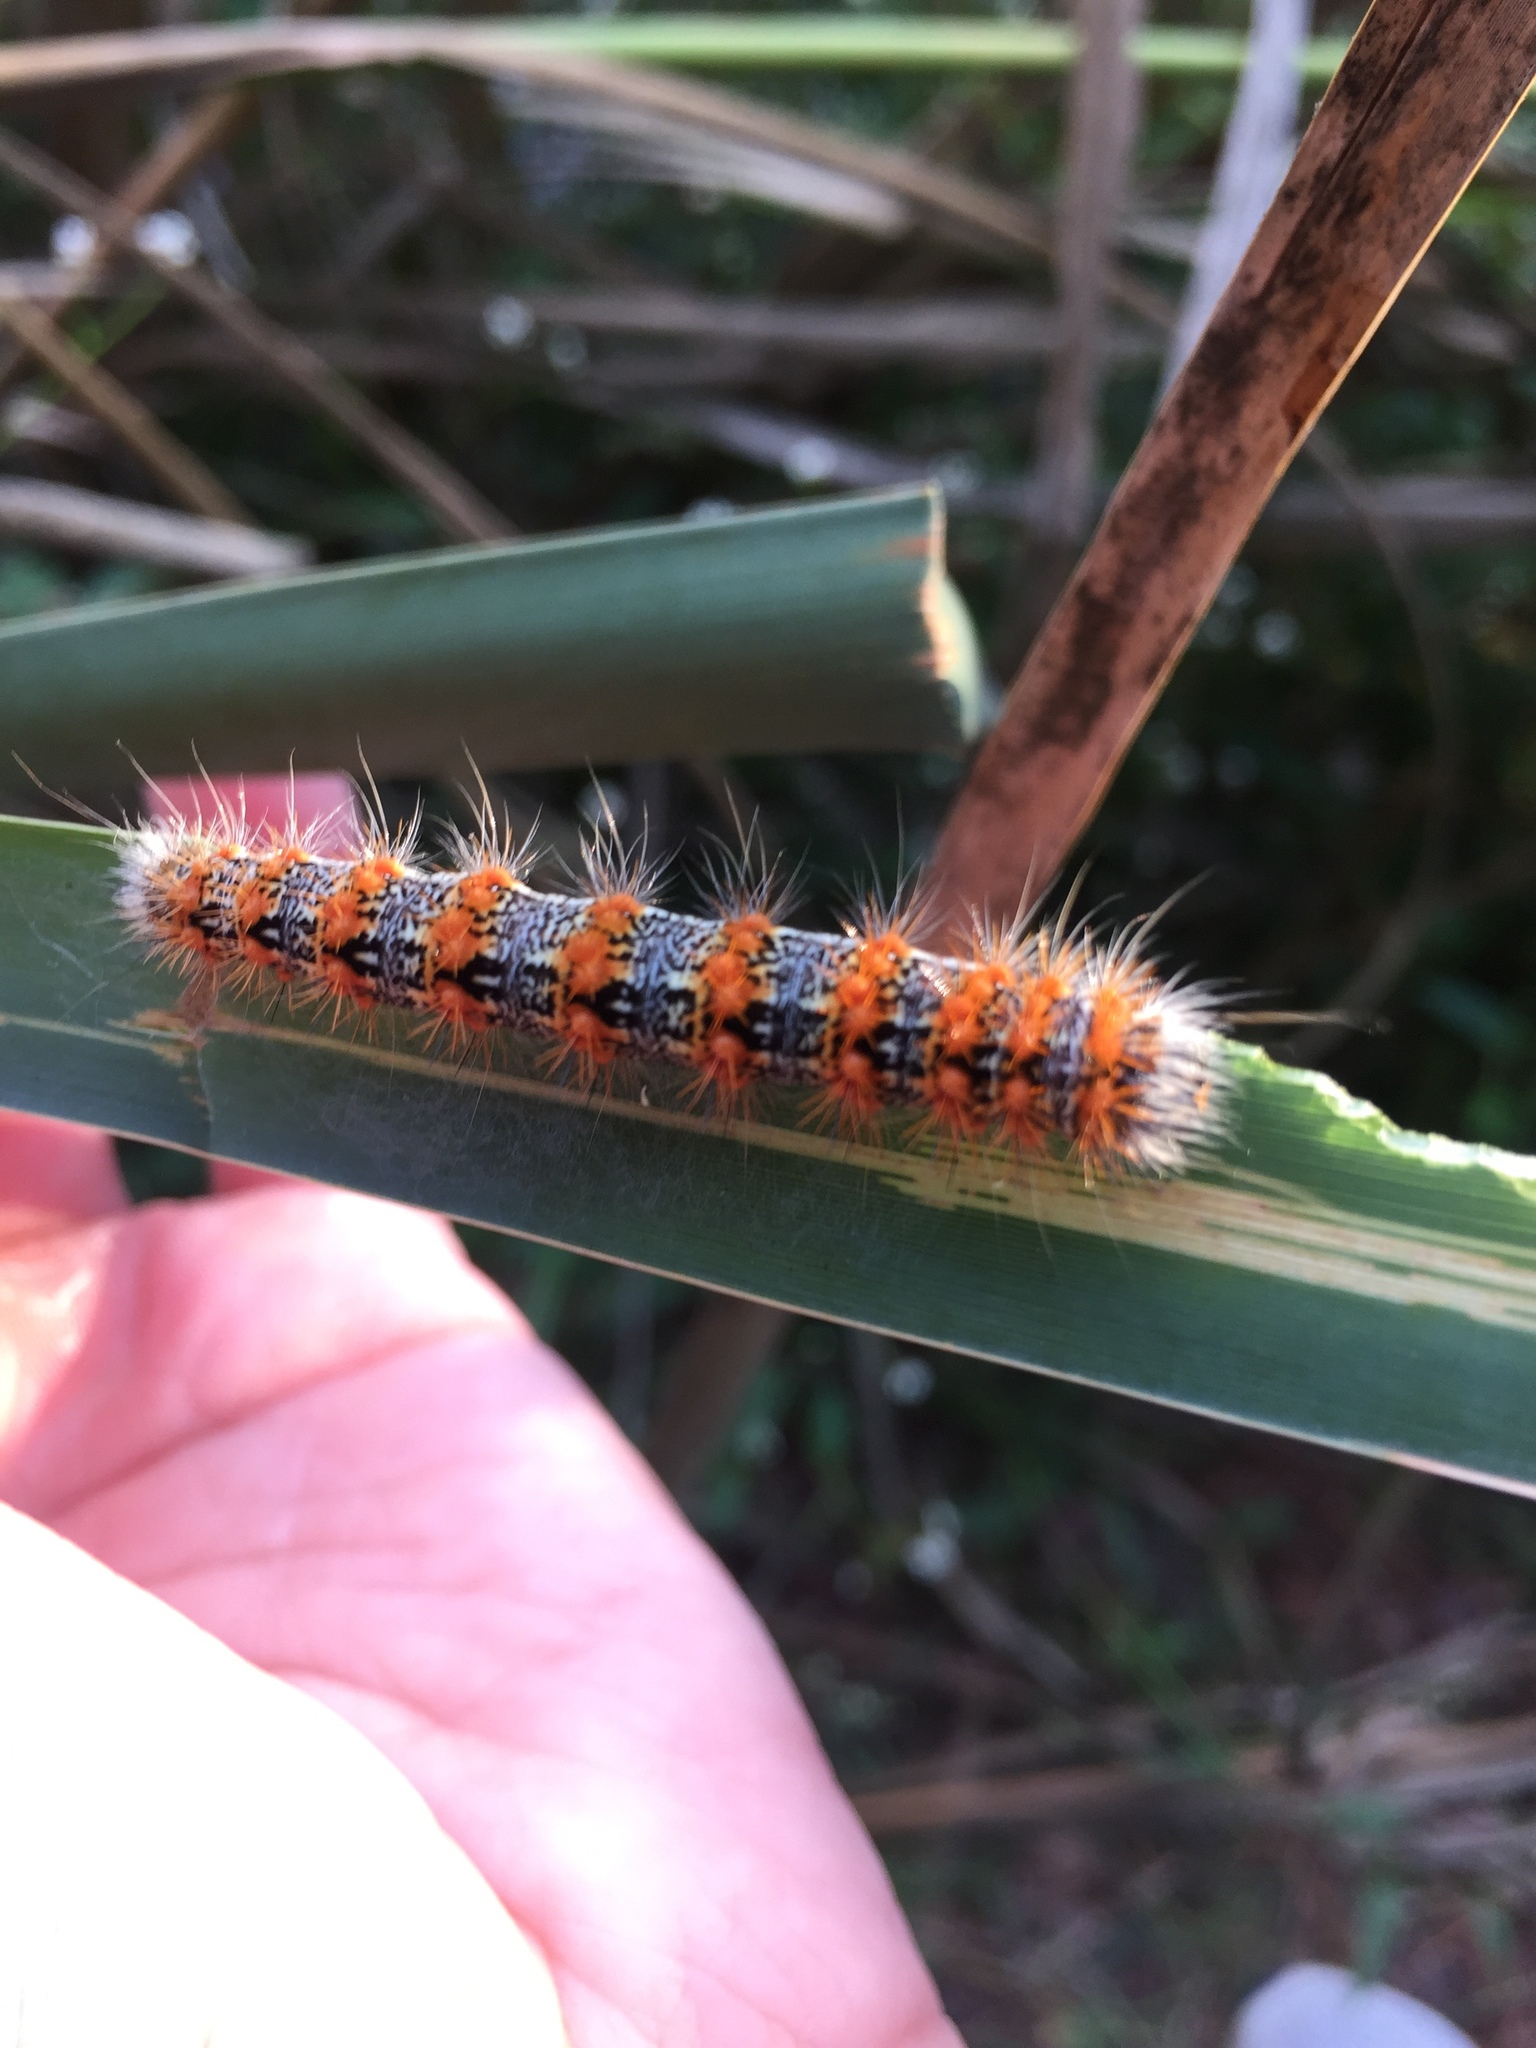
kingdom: Animalia
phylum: Arthropoda
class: Insecta
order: Lepidoptera
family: Noctuidae
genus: Acronicta
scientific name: Acronicta insularis
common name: Henry's marsh moth
